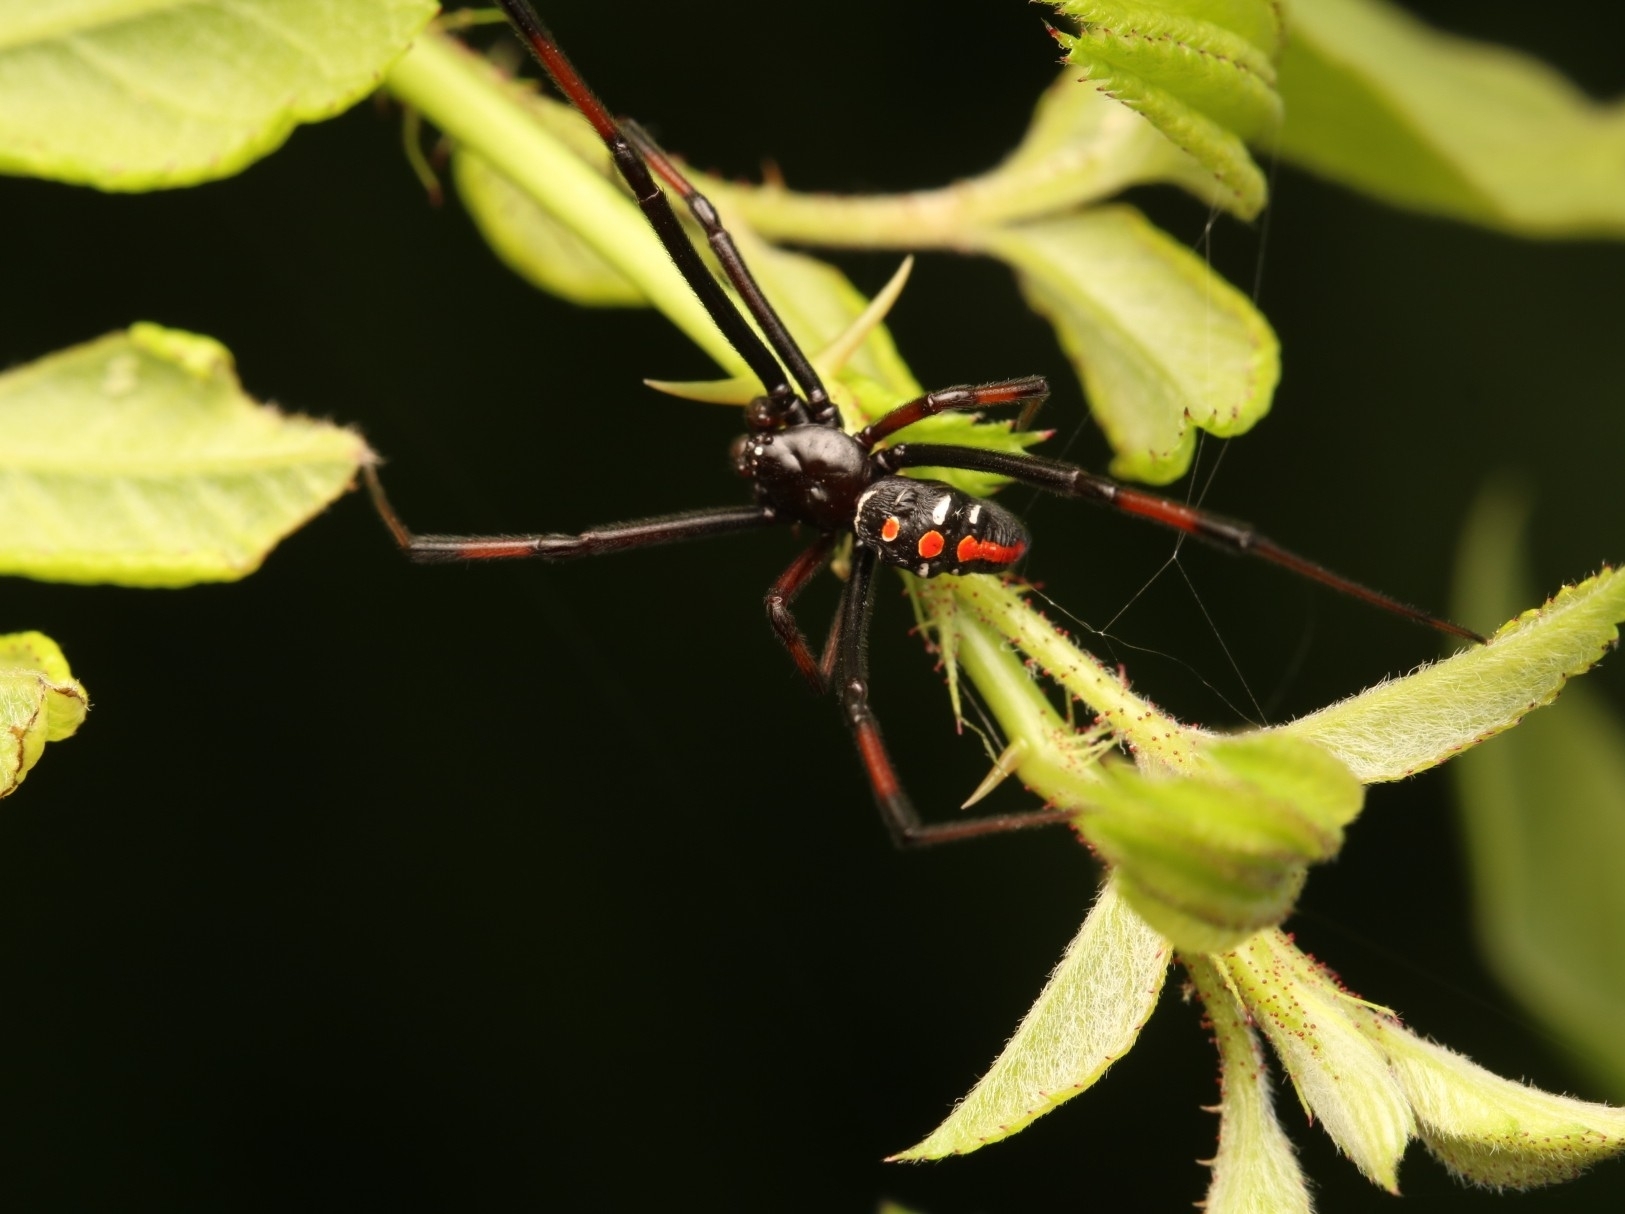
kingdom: Animalia
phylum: Arthropoda
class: Arachnida
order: Araneae
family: Theridiidae
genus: Latrodectus
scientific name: Latrodectus variolus
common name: Northern black widow
